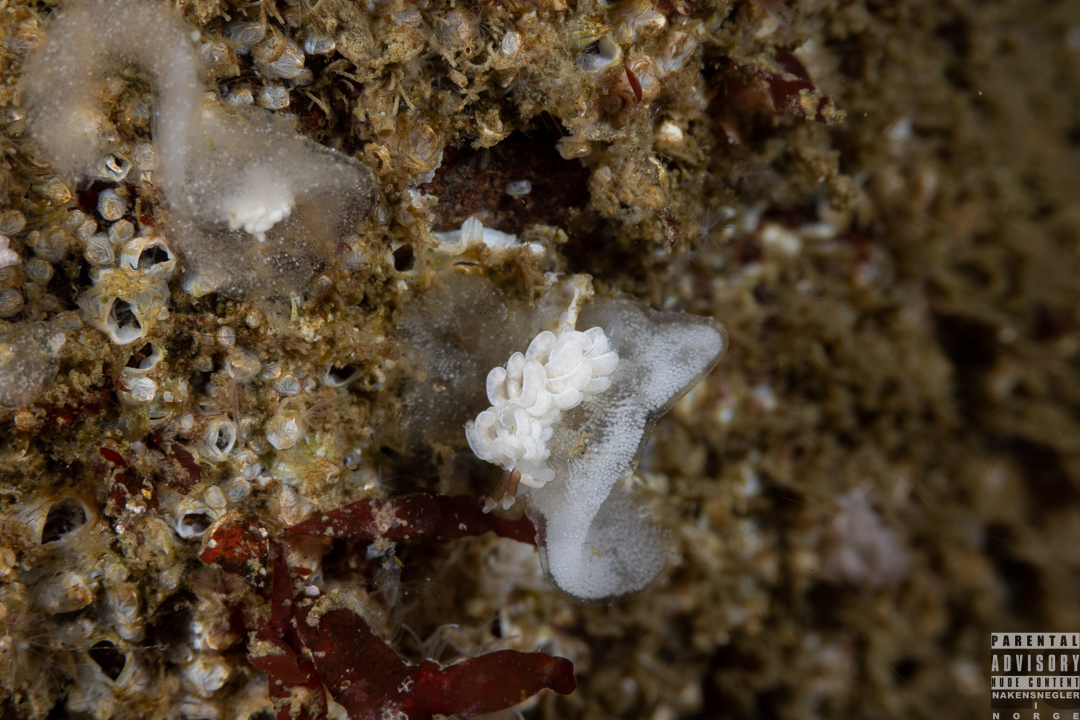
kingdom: Animalia
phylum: Mollusca
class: Gastropoda
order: Nudibranchia
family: Facelinidae
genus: Favorinus
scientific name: Favorinus branchialis
